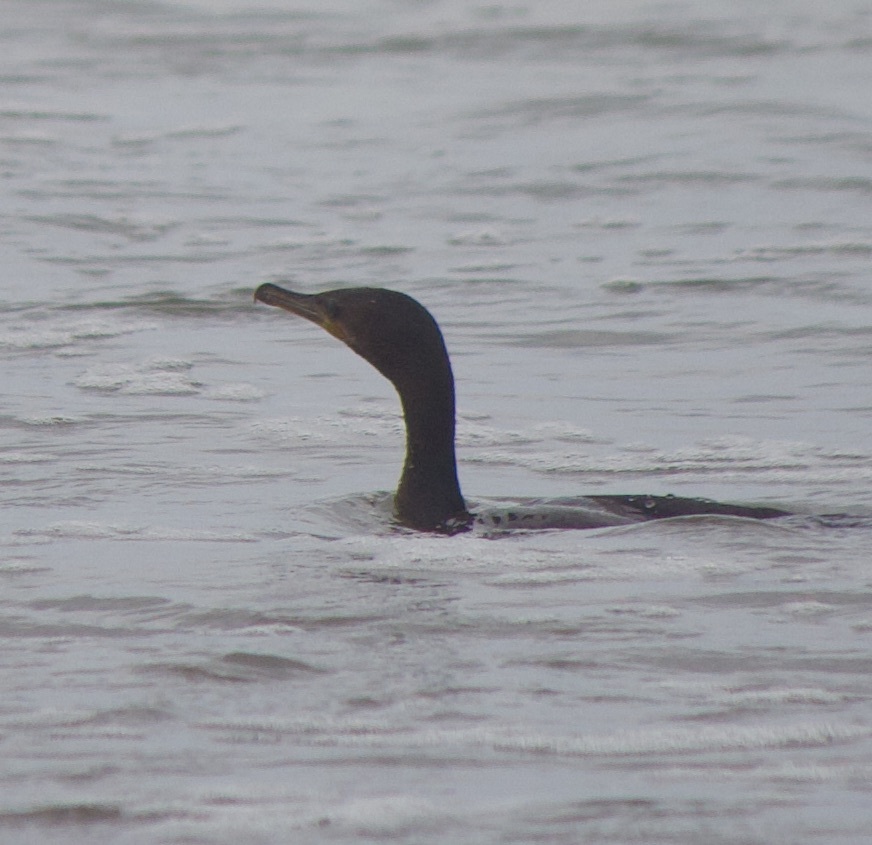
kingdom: Animalia
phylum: Chordata
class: Aves
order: Suliformes
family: Phalacrocoracidae
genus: Phalacrocorax
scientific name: Phalacrocorax brasilianus
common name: Neotropic cormorant
